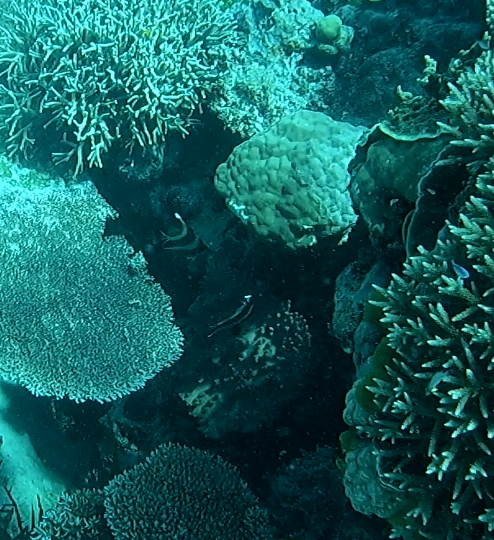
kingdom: Animalia
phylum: Chordata
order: Perciformes
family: Chaetodontidae
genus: Heniochus
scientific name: Heniochus chrysostomus
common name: Horned bannerfish
